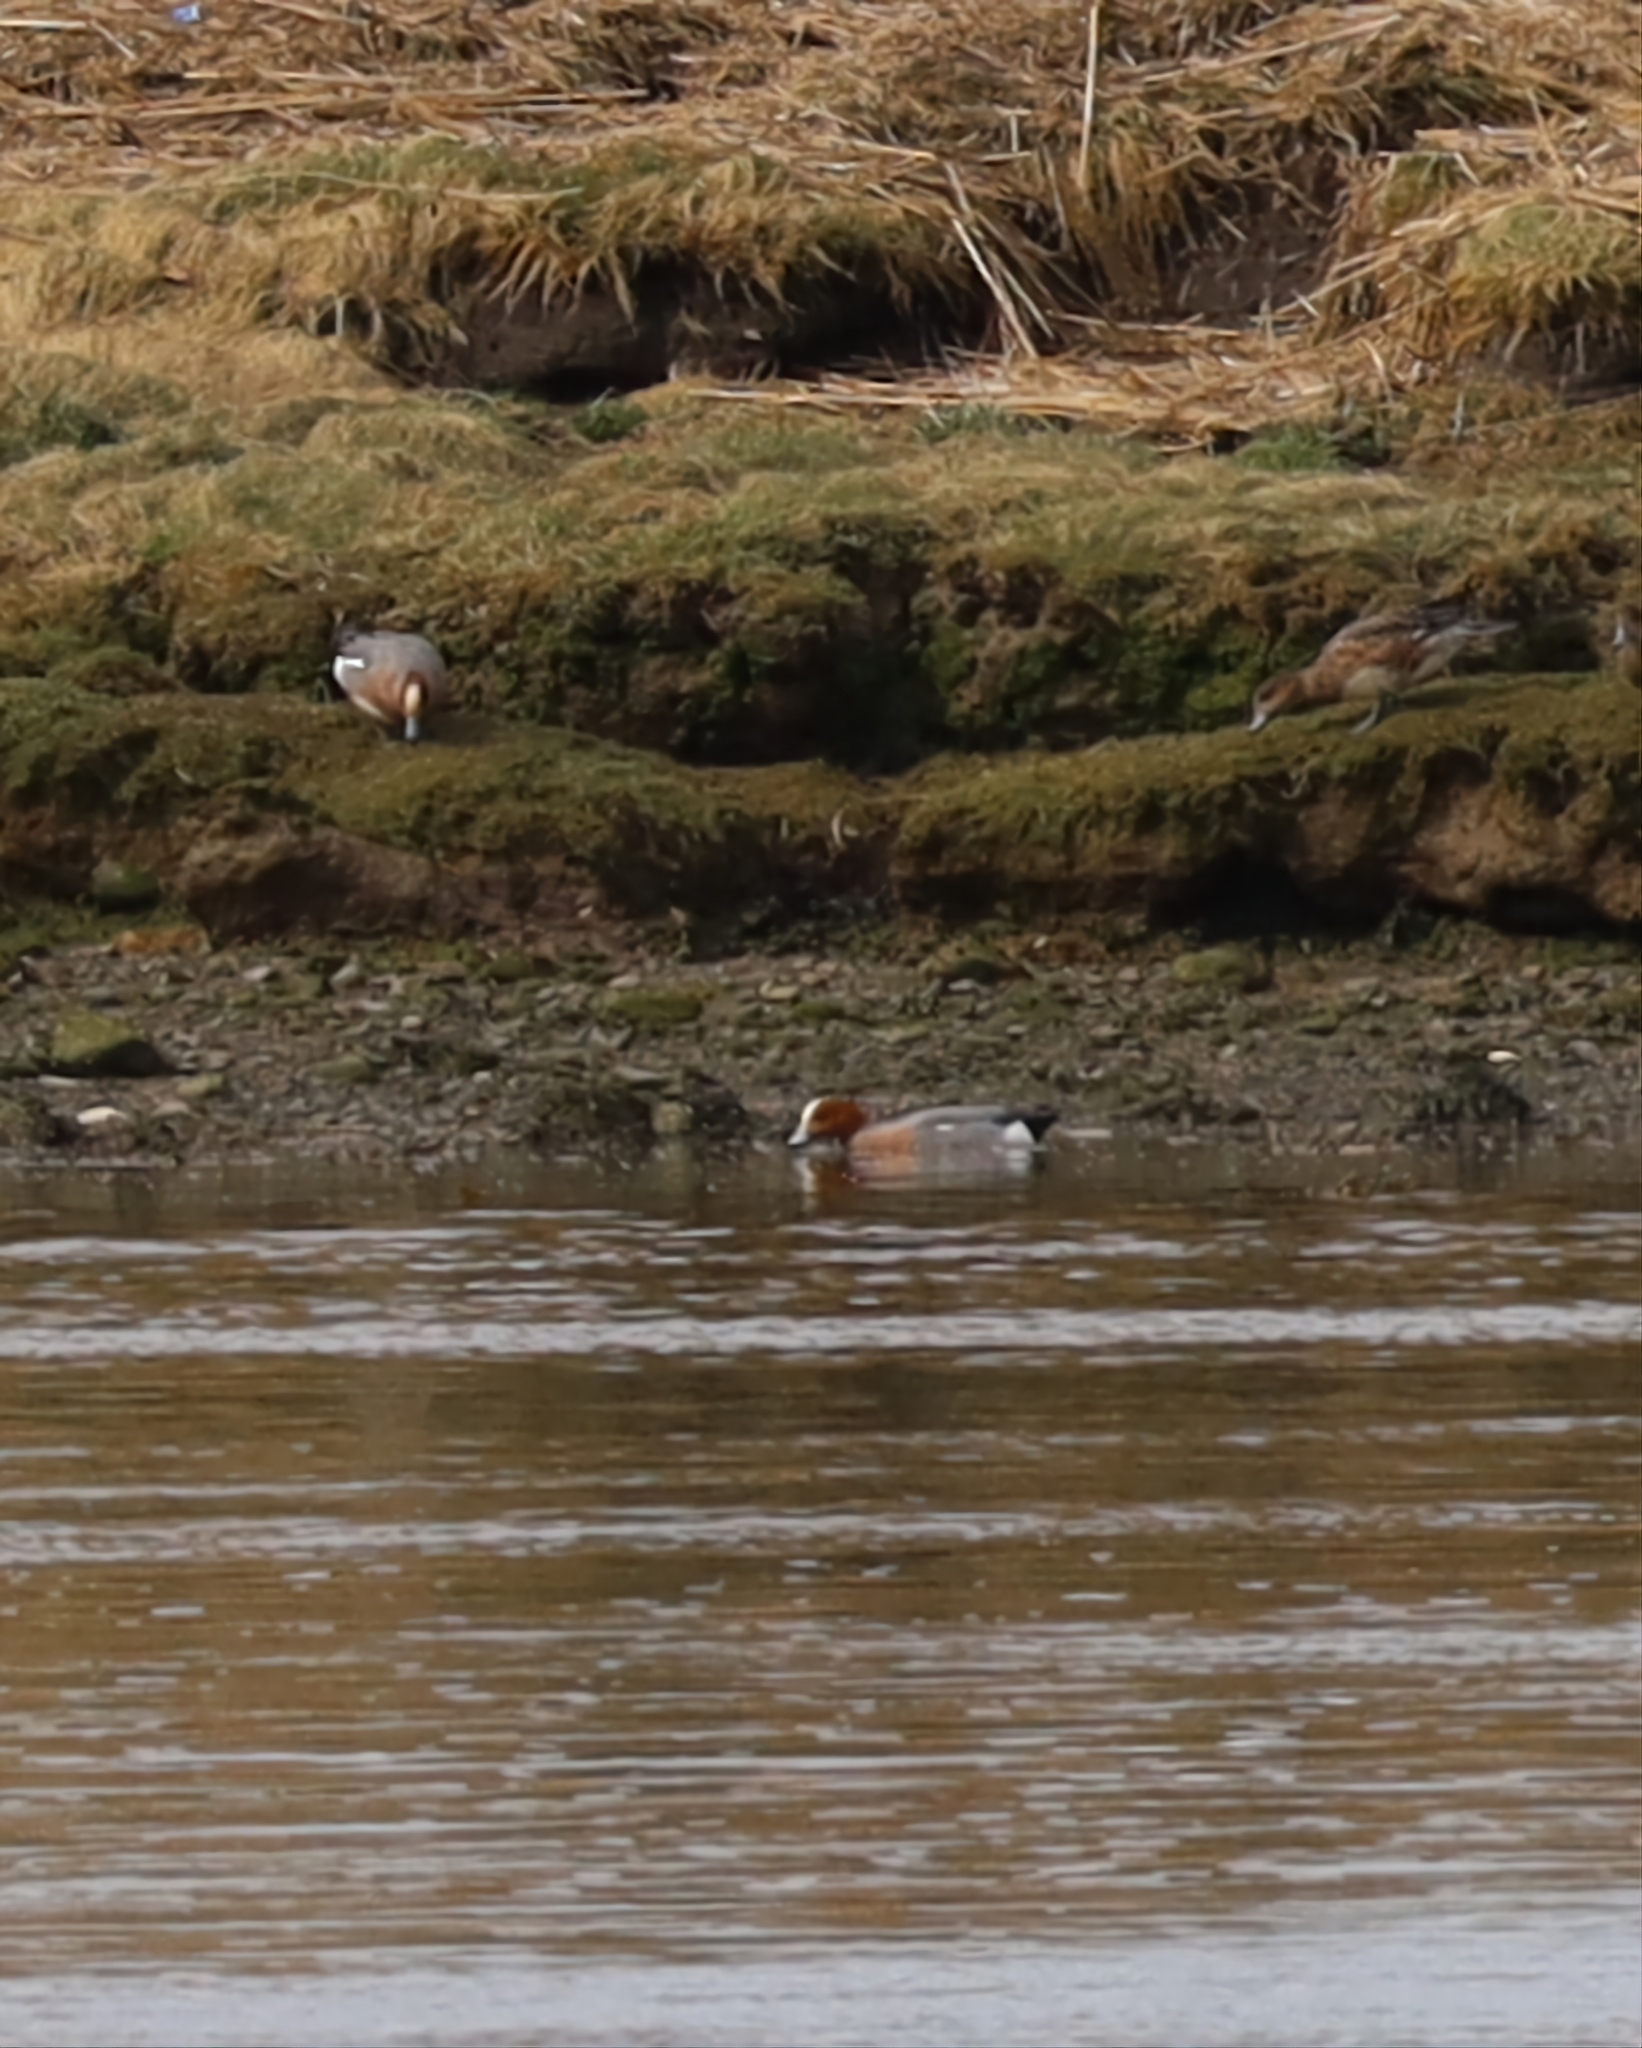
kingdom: Animalia
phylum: Chordata
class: Aves
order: Anseriformes
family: Anatidae
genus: Mareca
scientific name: Mareca penelope
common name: Eurasian wigeon
